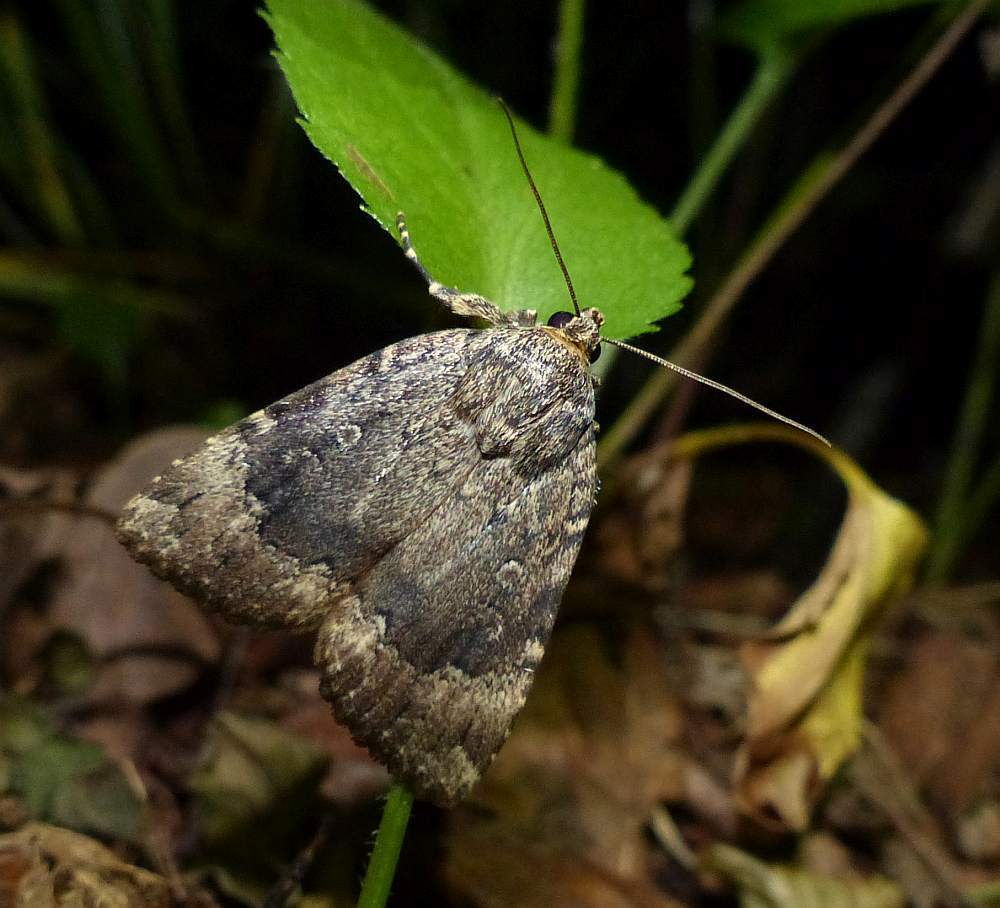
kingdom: Animalia
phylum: Arthropoda
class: Insecta
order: Lepidoptera
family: Noctuidae
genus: Amphipyra
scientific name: Amphipyra pyramidoides
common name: American copper underwing
